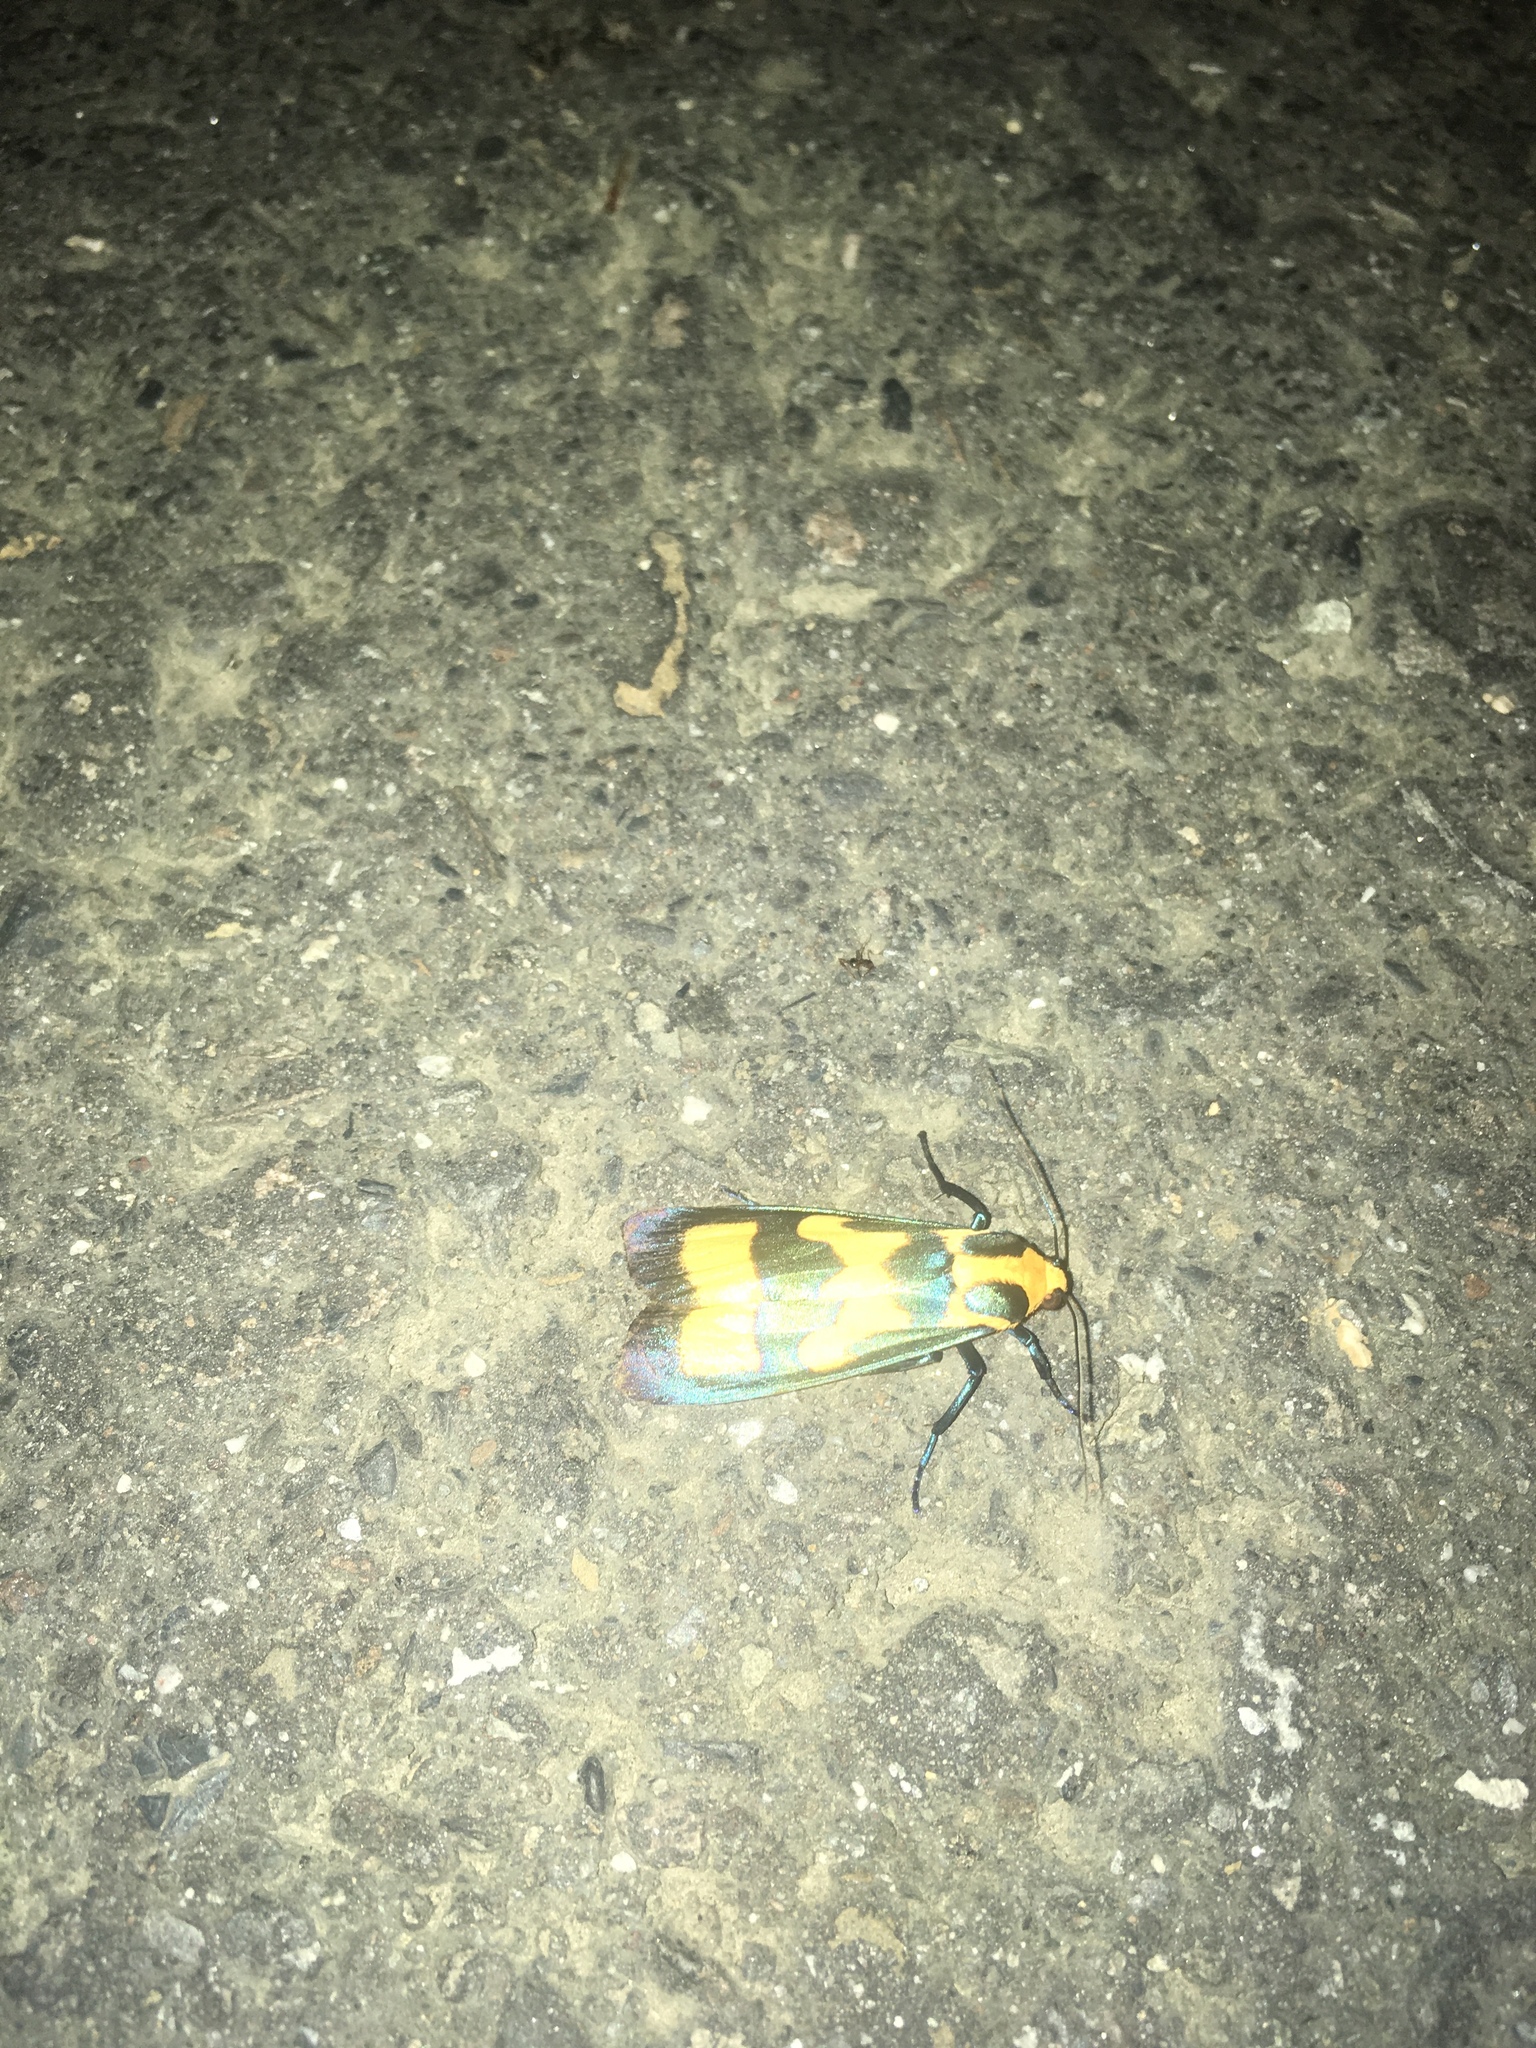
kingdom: Animalia
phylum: Arthropoda
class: Insecta
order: Lepidoptera
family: Erebidae
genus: Chrysaeglia
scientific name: Chrysaeglia magnifica
